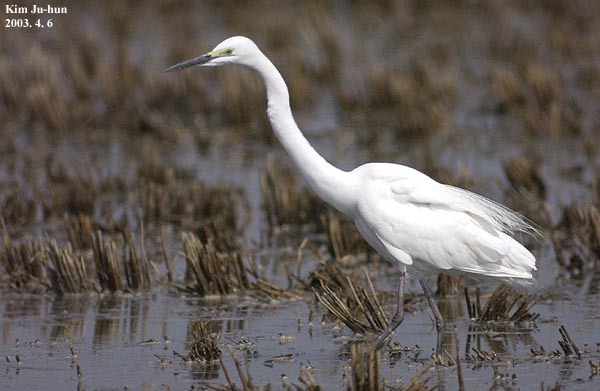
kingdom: Animalia
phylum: Chordata
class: Aves
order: Pelecaniformes
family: Ardeidae
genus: Ardea
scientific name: Ardea alba
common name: Great egret
